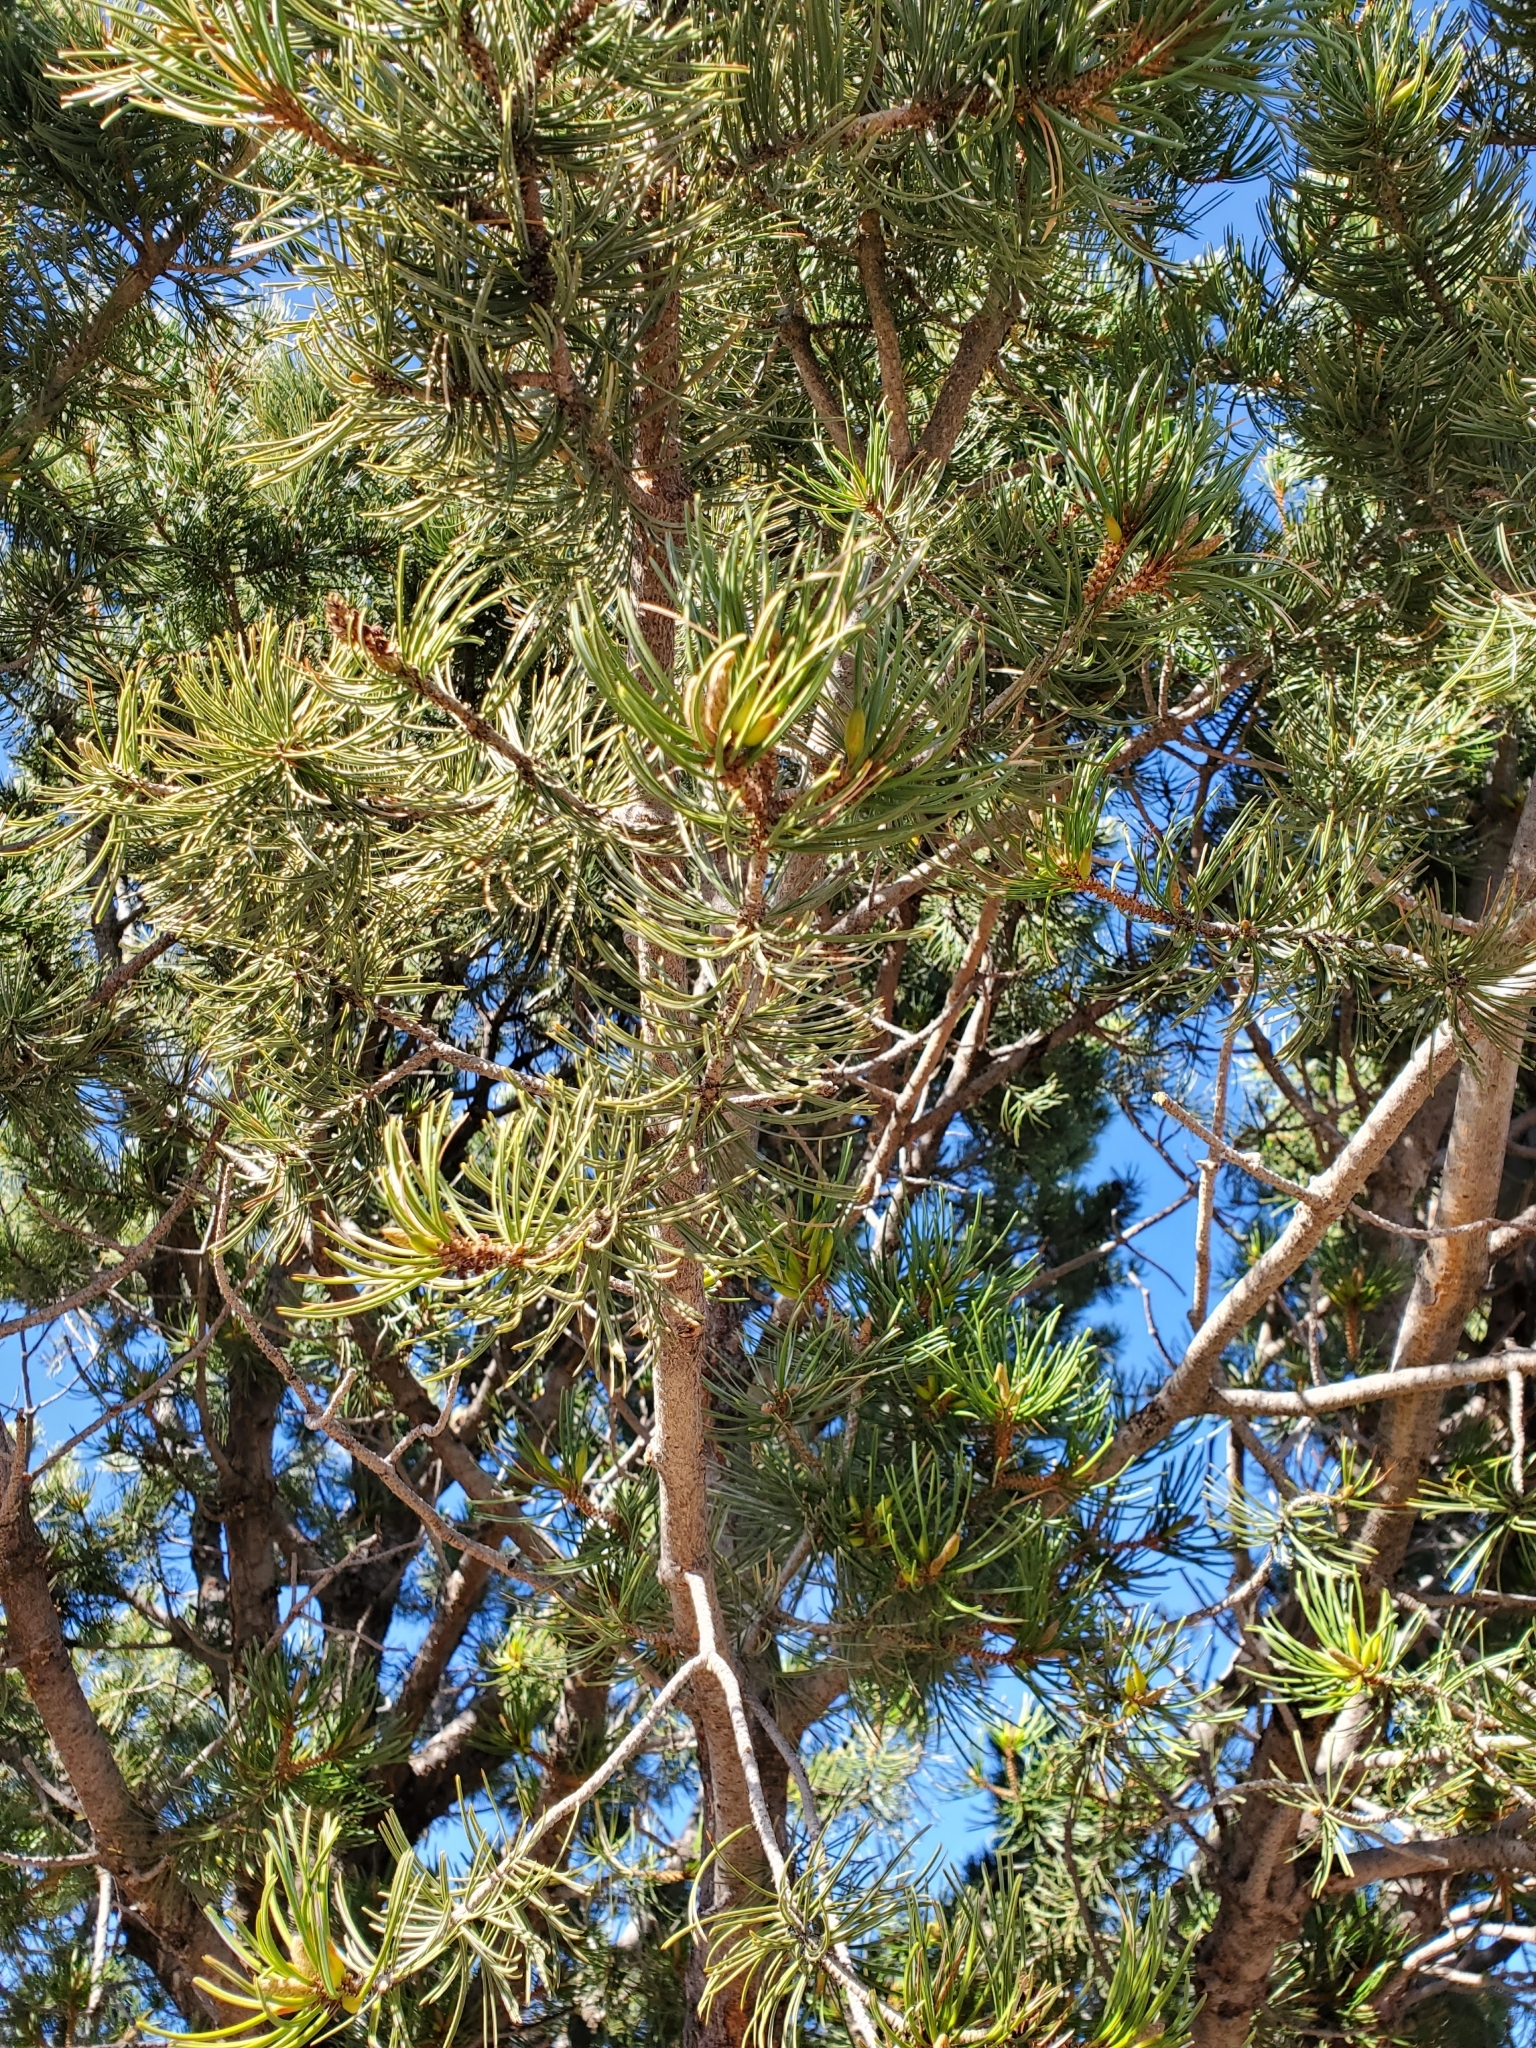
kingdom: Plantae
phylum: Tracheophyta
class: Pinopsida
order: Pinales
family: Pinaceae
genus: Pinus
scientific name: Pinus cembroides
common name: Mexican nut pine
